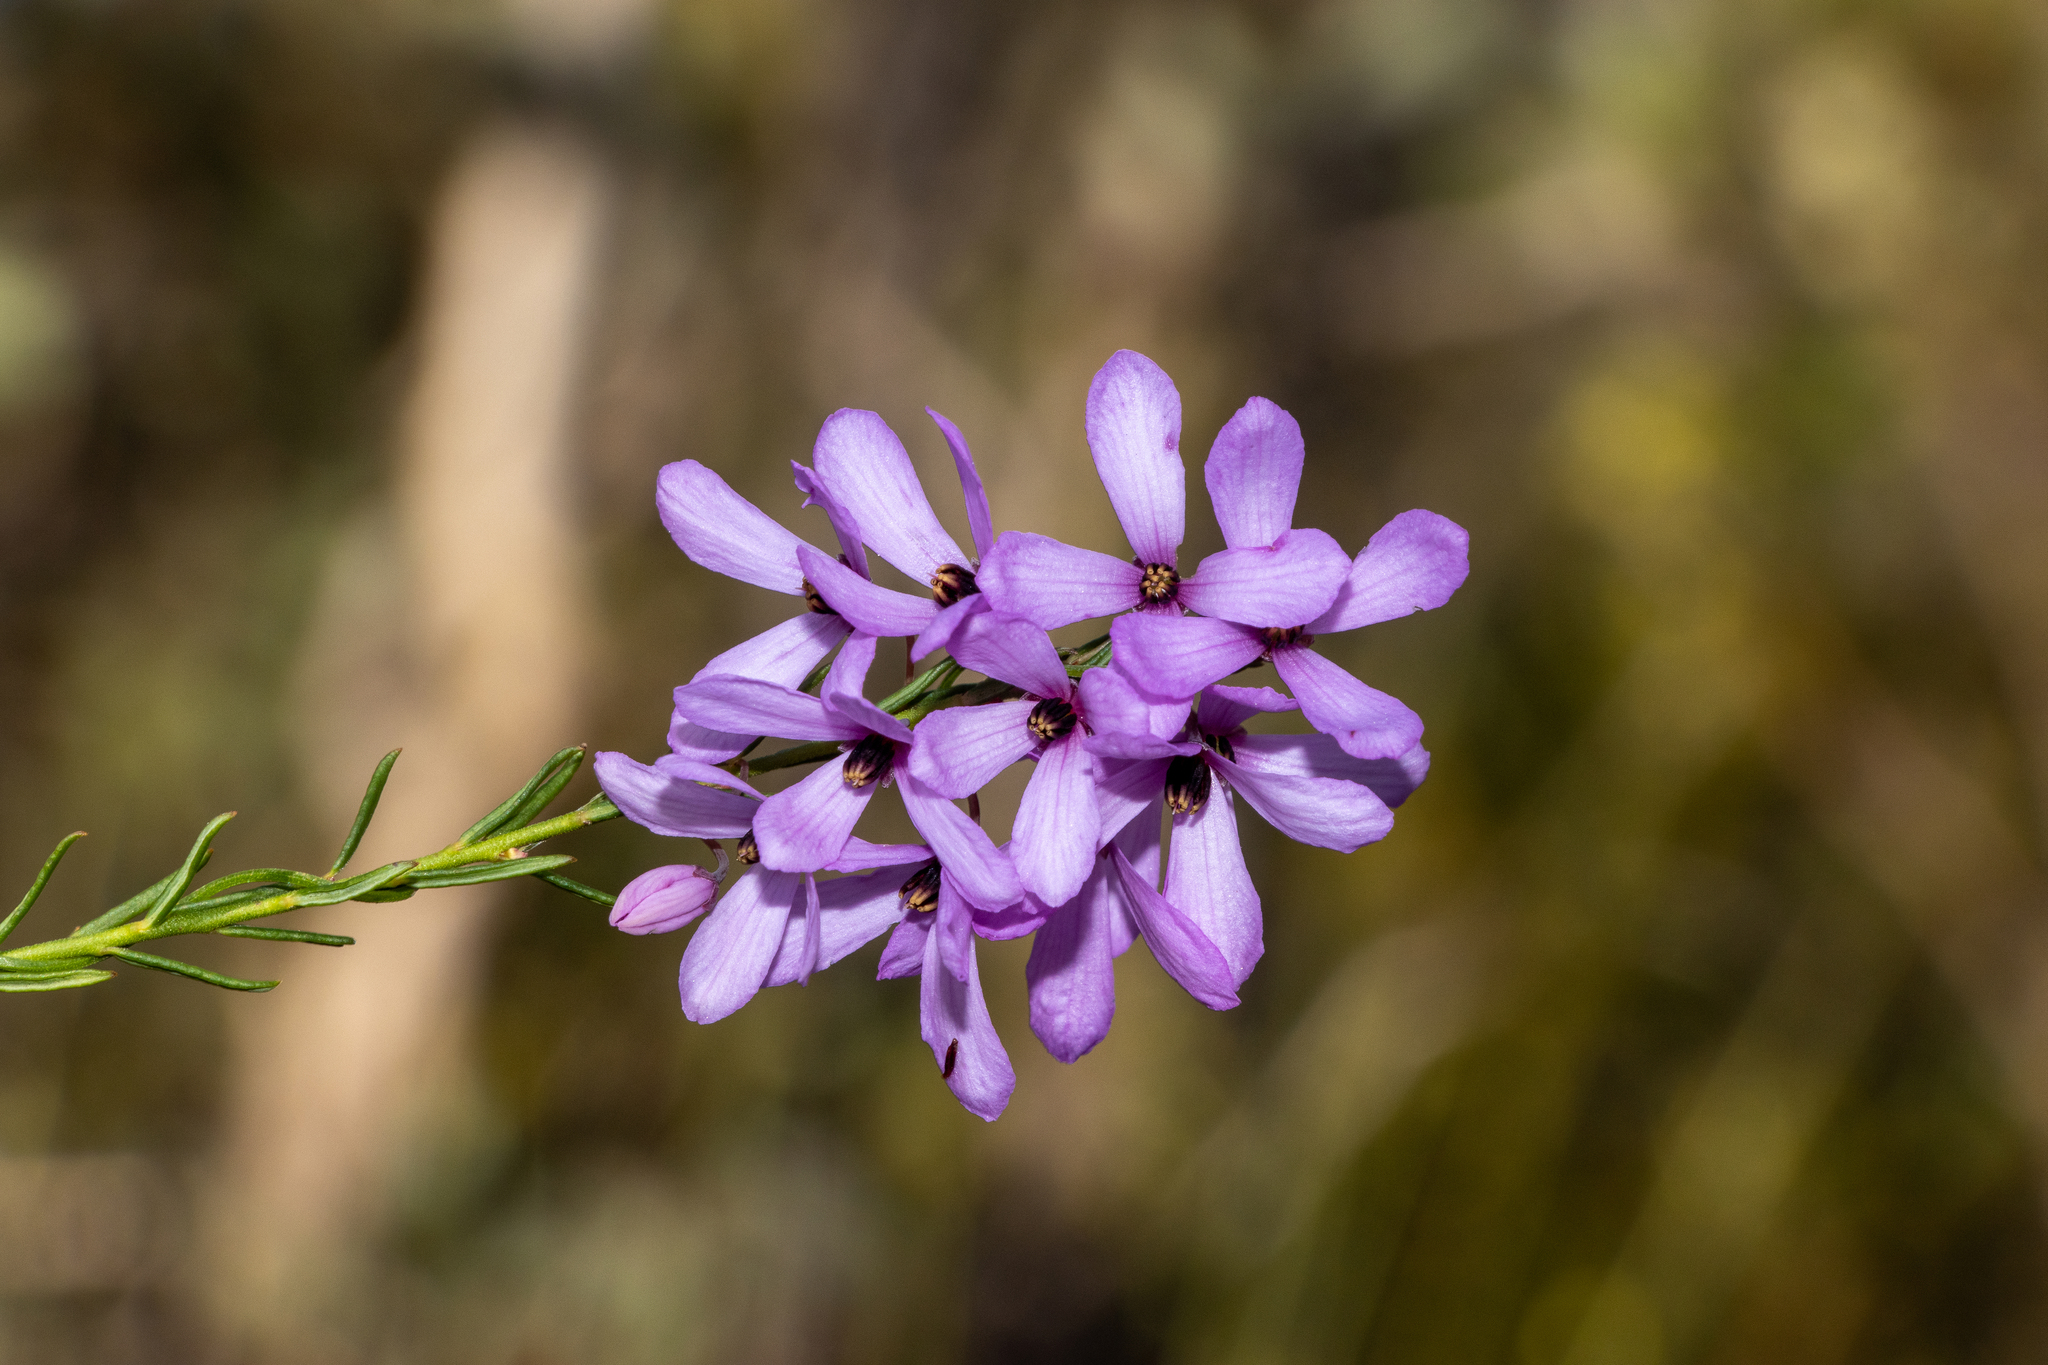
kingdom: Plantae
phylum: Tracheophyta
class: Magnoliopsida
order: Oxalidales
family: Elaeocarpaceae
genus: Tetratheca
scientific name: Tetratheca pilosa
